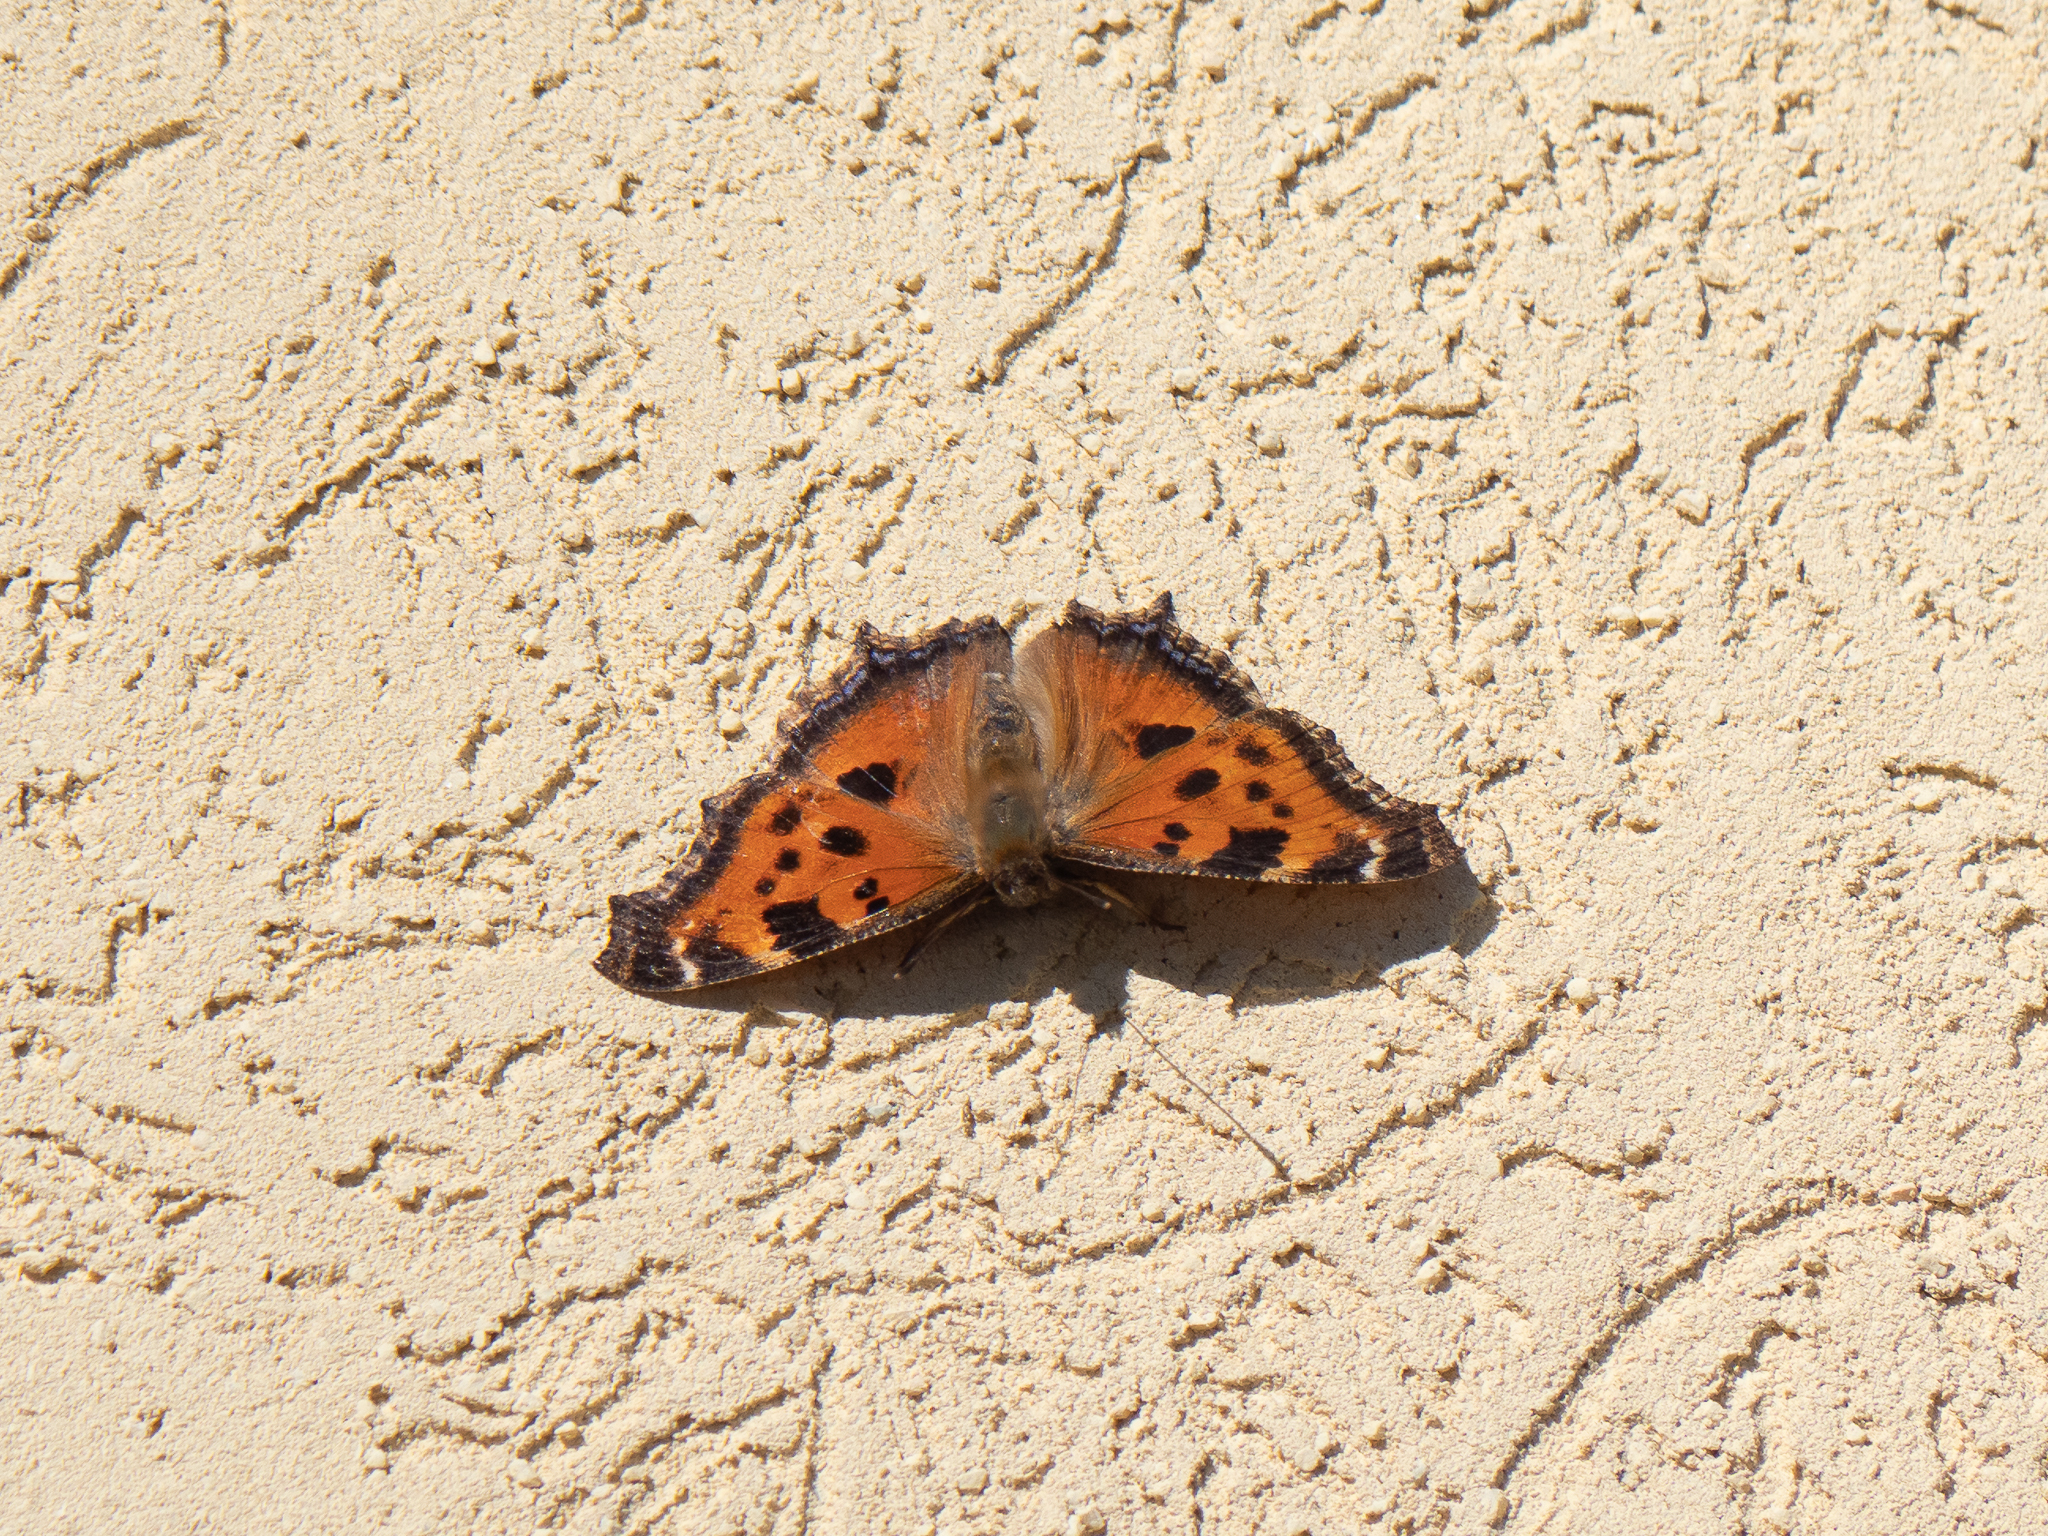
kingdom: Animalia
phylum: Arthropoda
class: Insecta
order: Lepidoptera
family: Nymphalidae
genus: Nymphalis
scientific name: Nymphalis xanthomelas
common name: Scarce tortoiseshell
